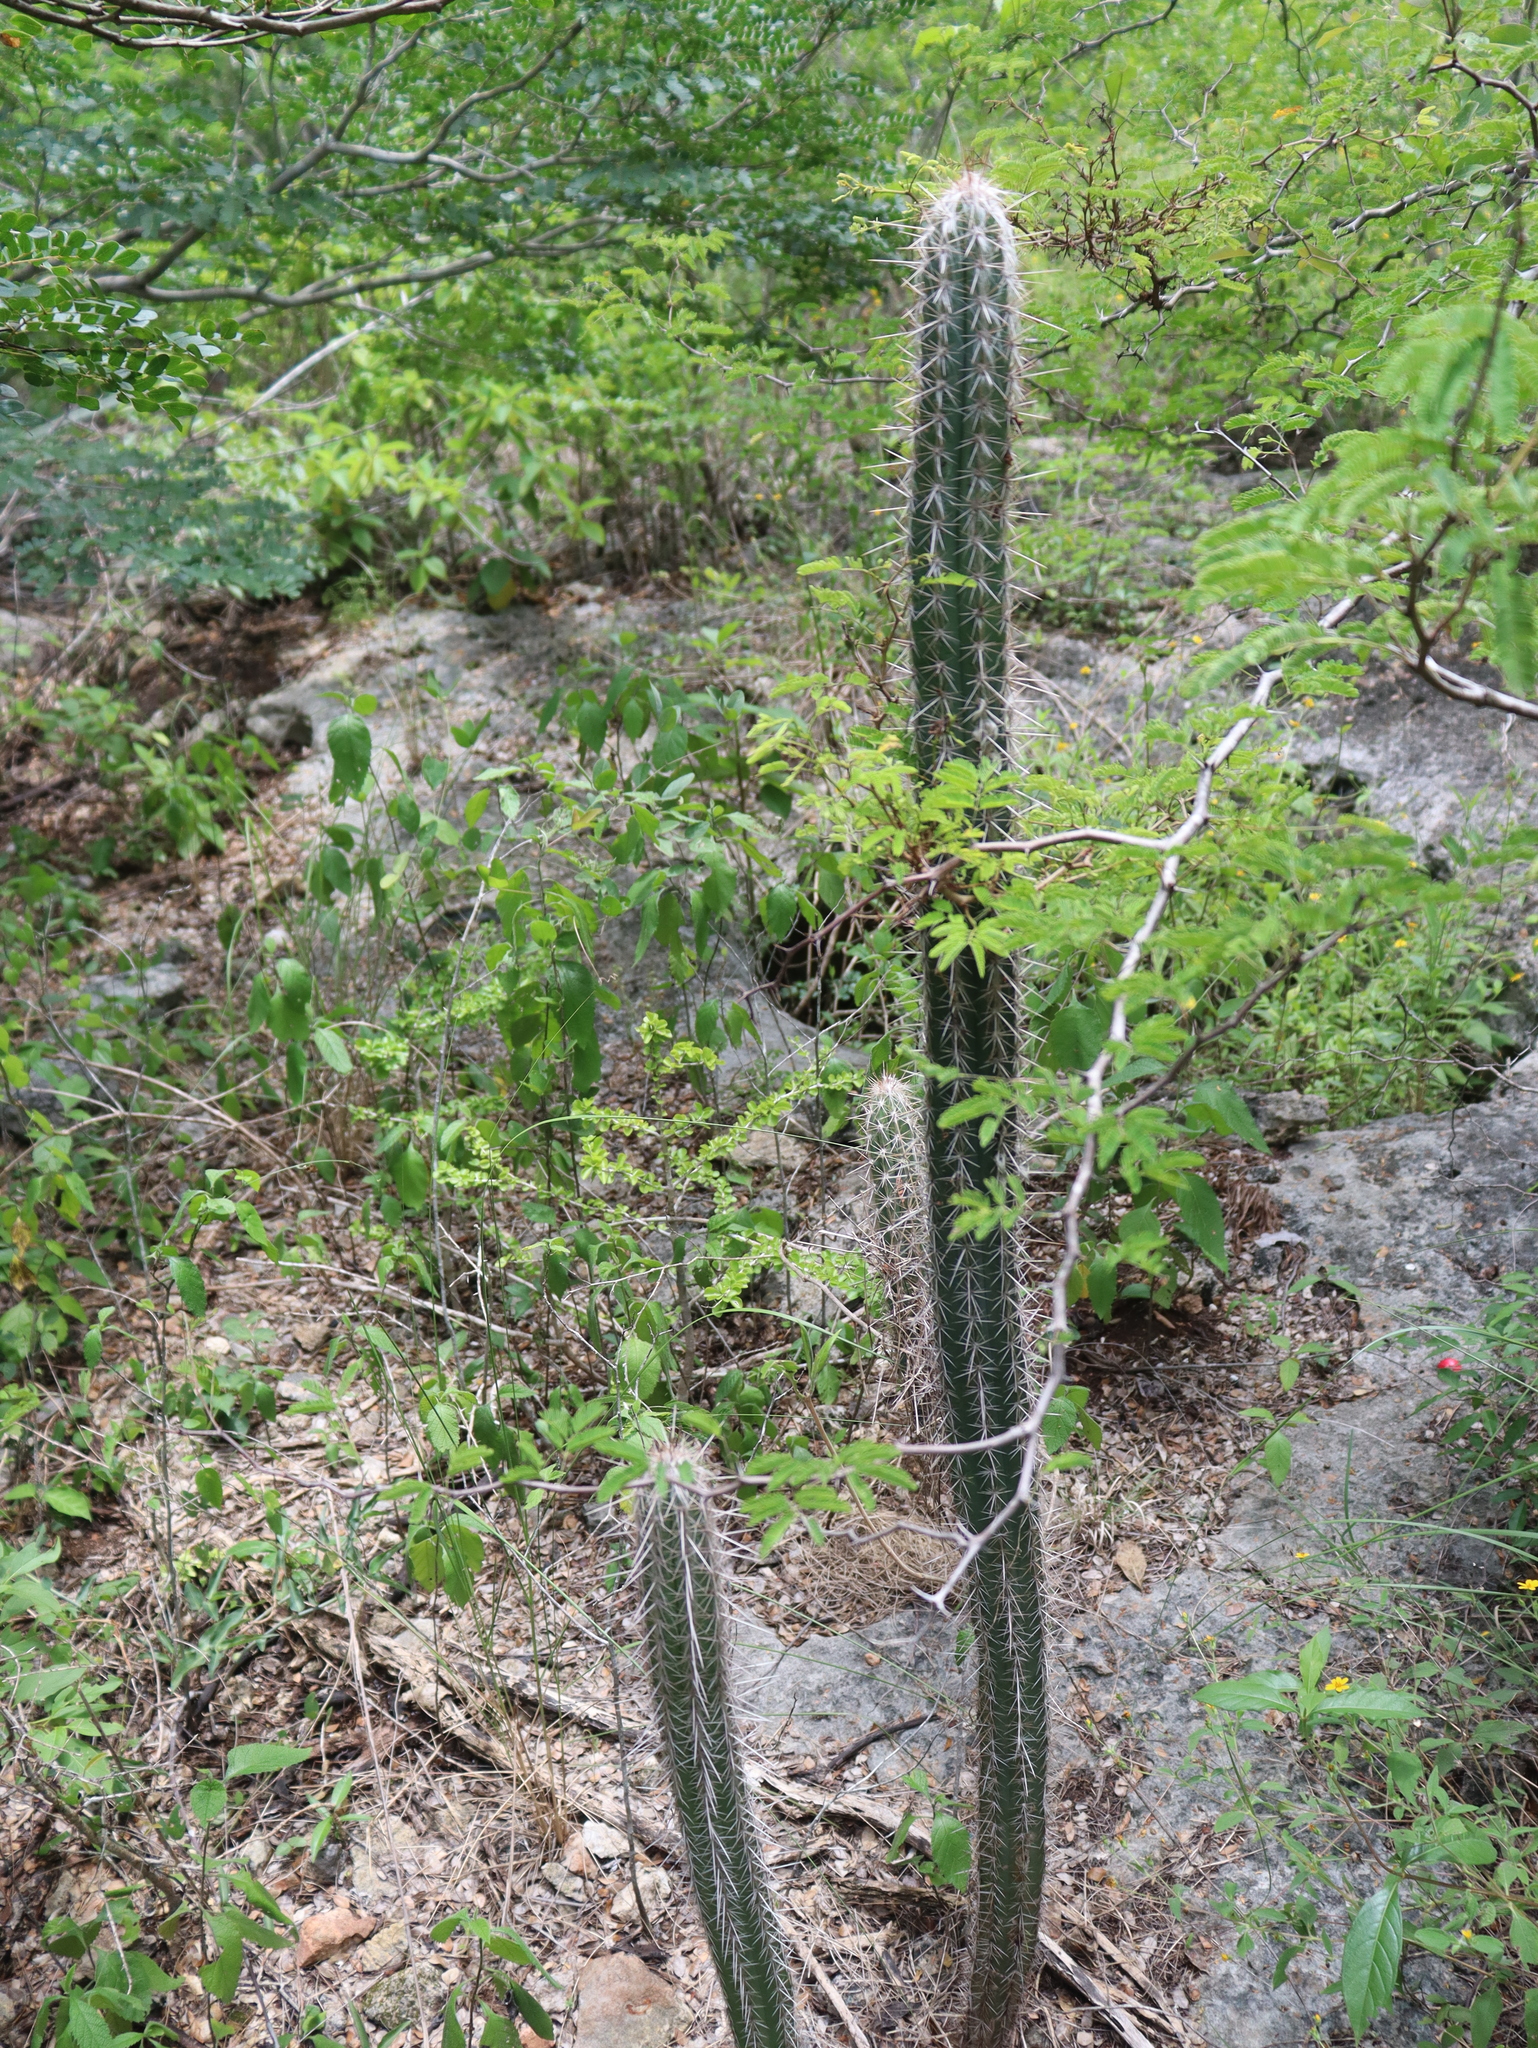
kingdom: Plantae
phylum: Tracheophyta
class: Magnoliopsida
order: Caryophyllales
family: Cactaceae
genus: Pilosocereus
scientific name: Pilosocereus gaumeri
